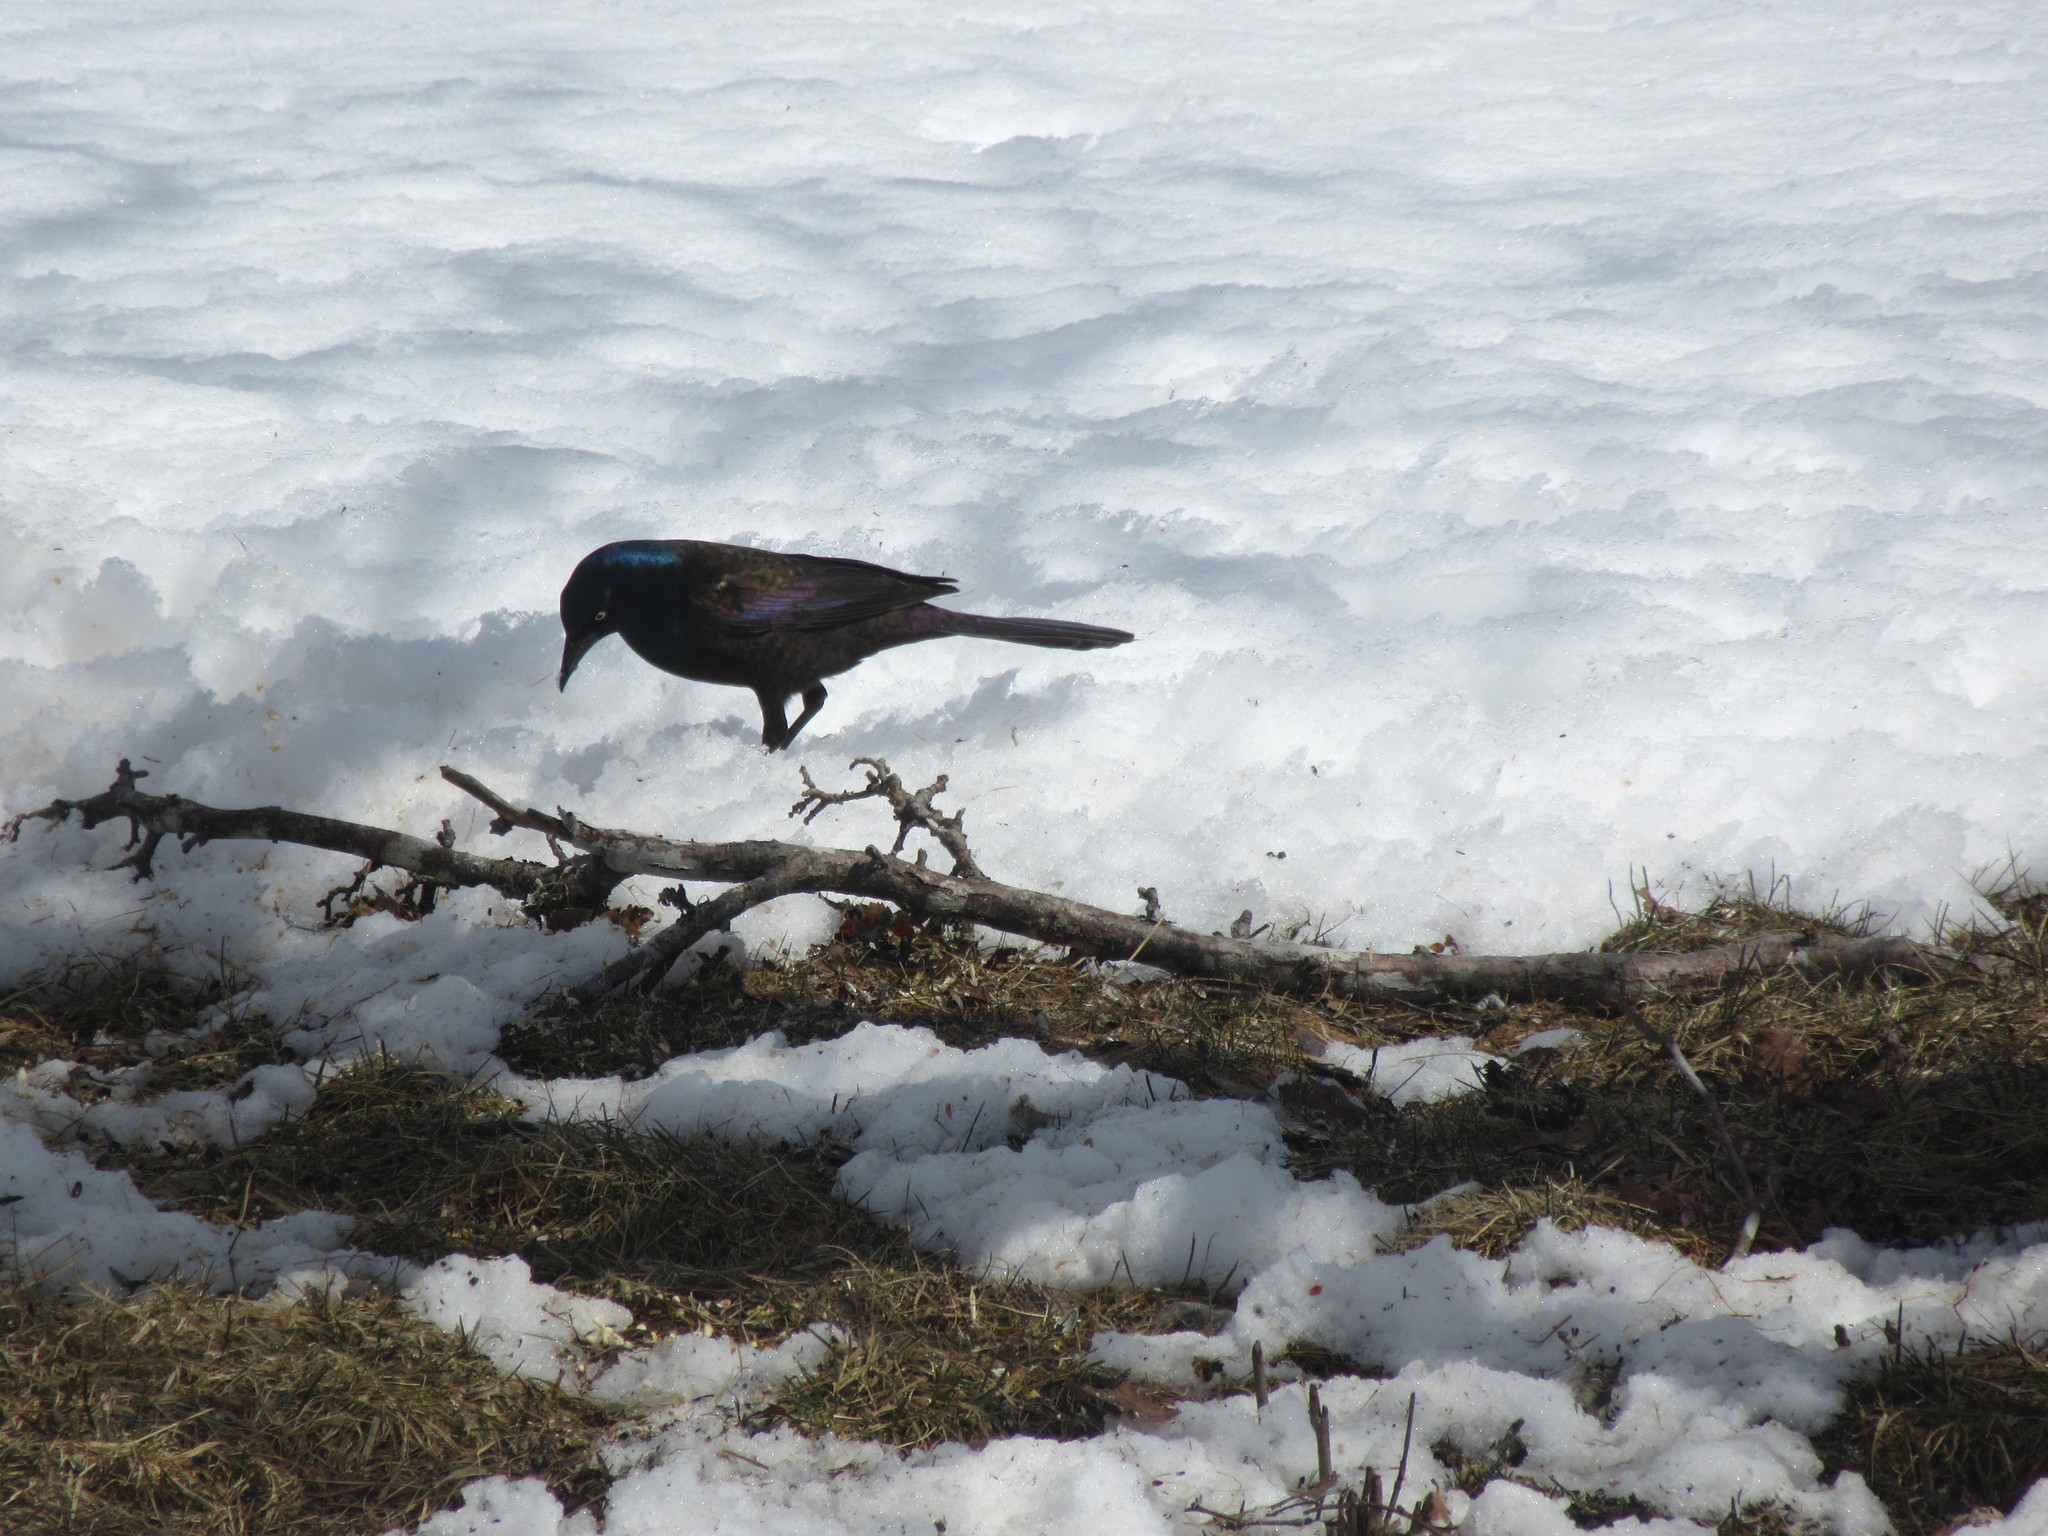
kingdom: Animalia
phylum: Chordata
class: Aves
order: Passeriformes
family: Icteridae
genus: Quiscalus
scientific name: Quiscalus quiscula
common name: Common grackle
